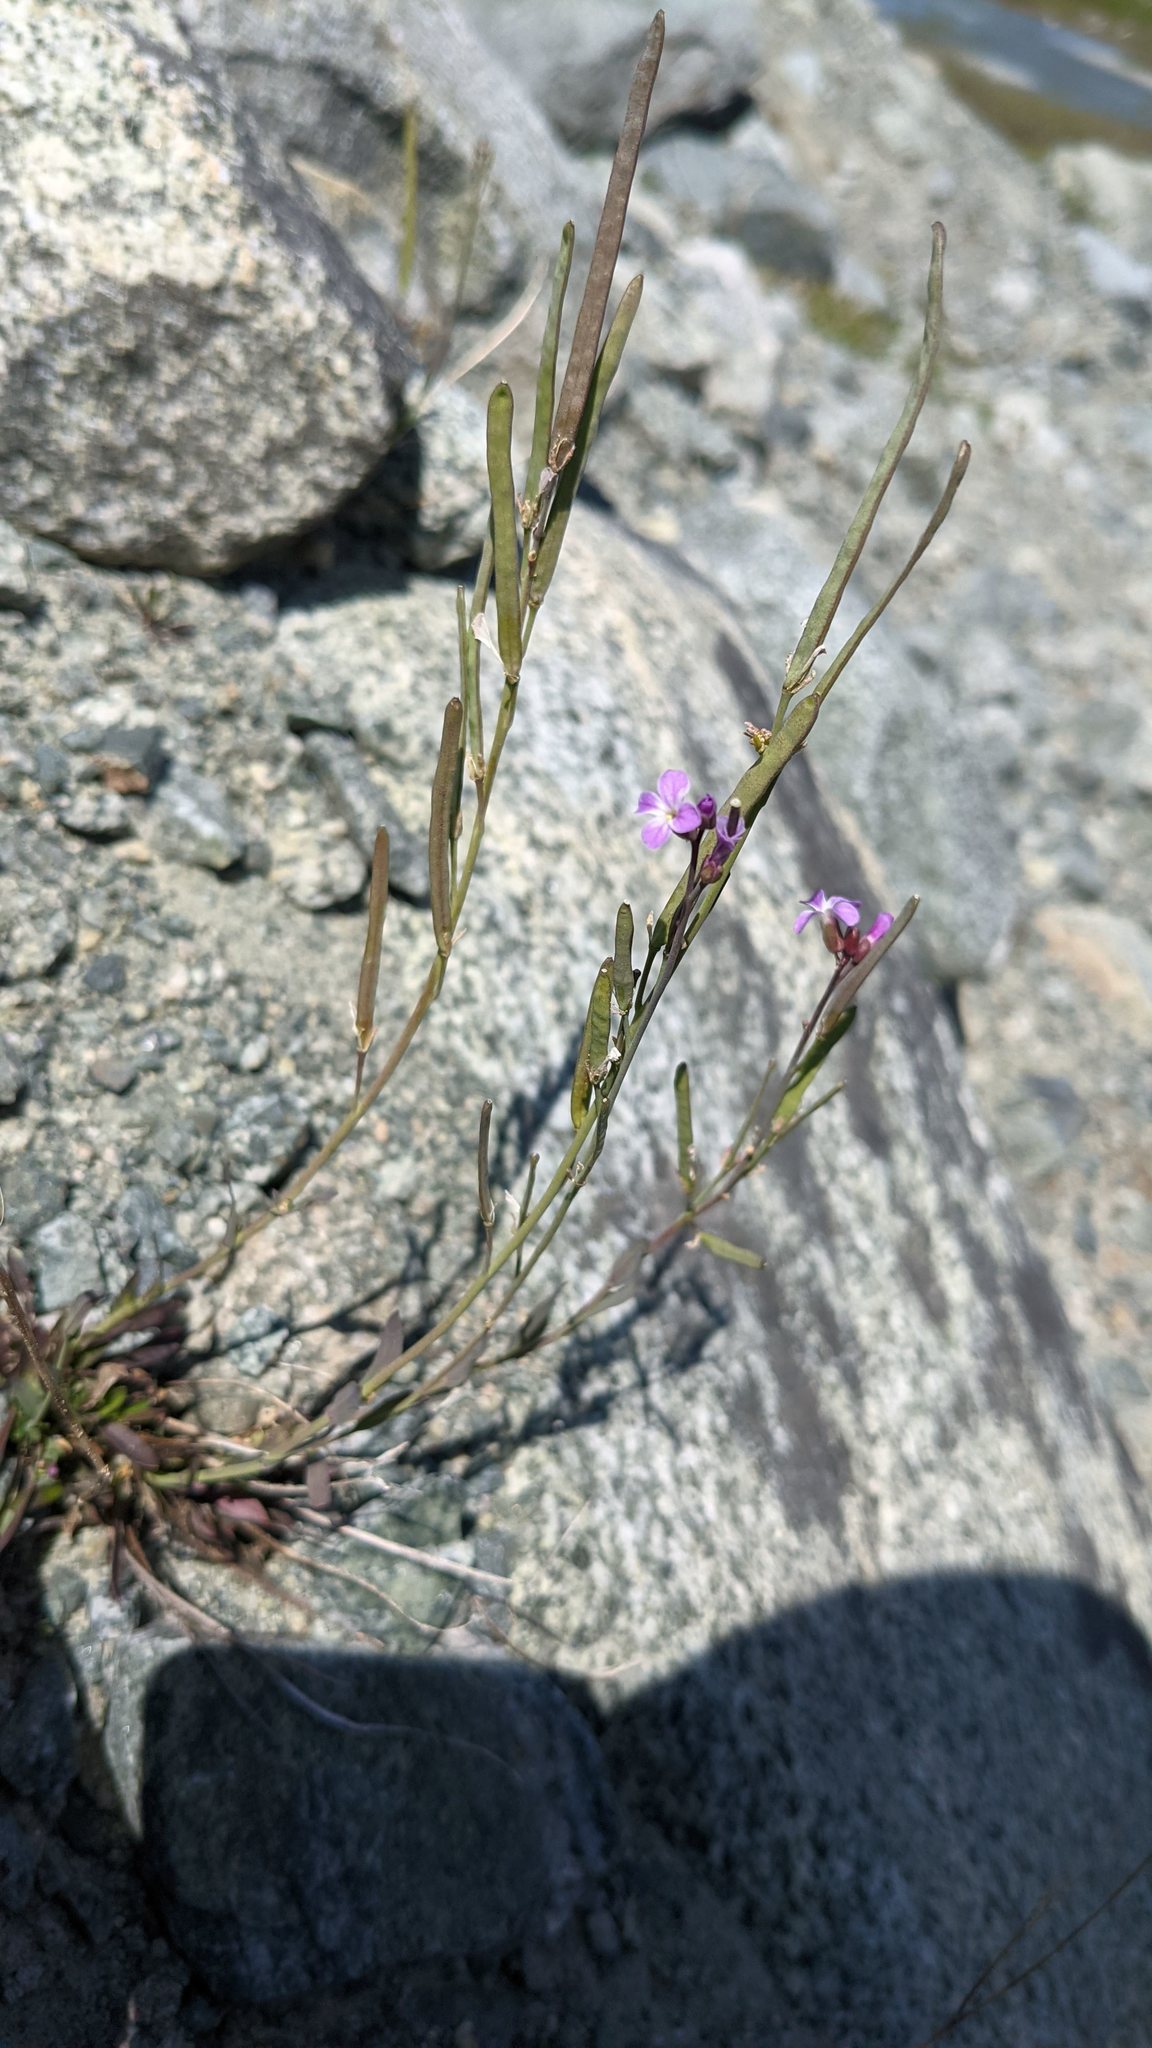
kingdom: Plantae
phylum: Tracheophyta
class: Magnoliopsida
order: Brassicales
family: Brassicaceae
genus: Boechera
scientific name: Boechera lyallii
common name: Lyall's rockcress
